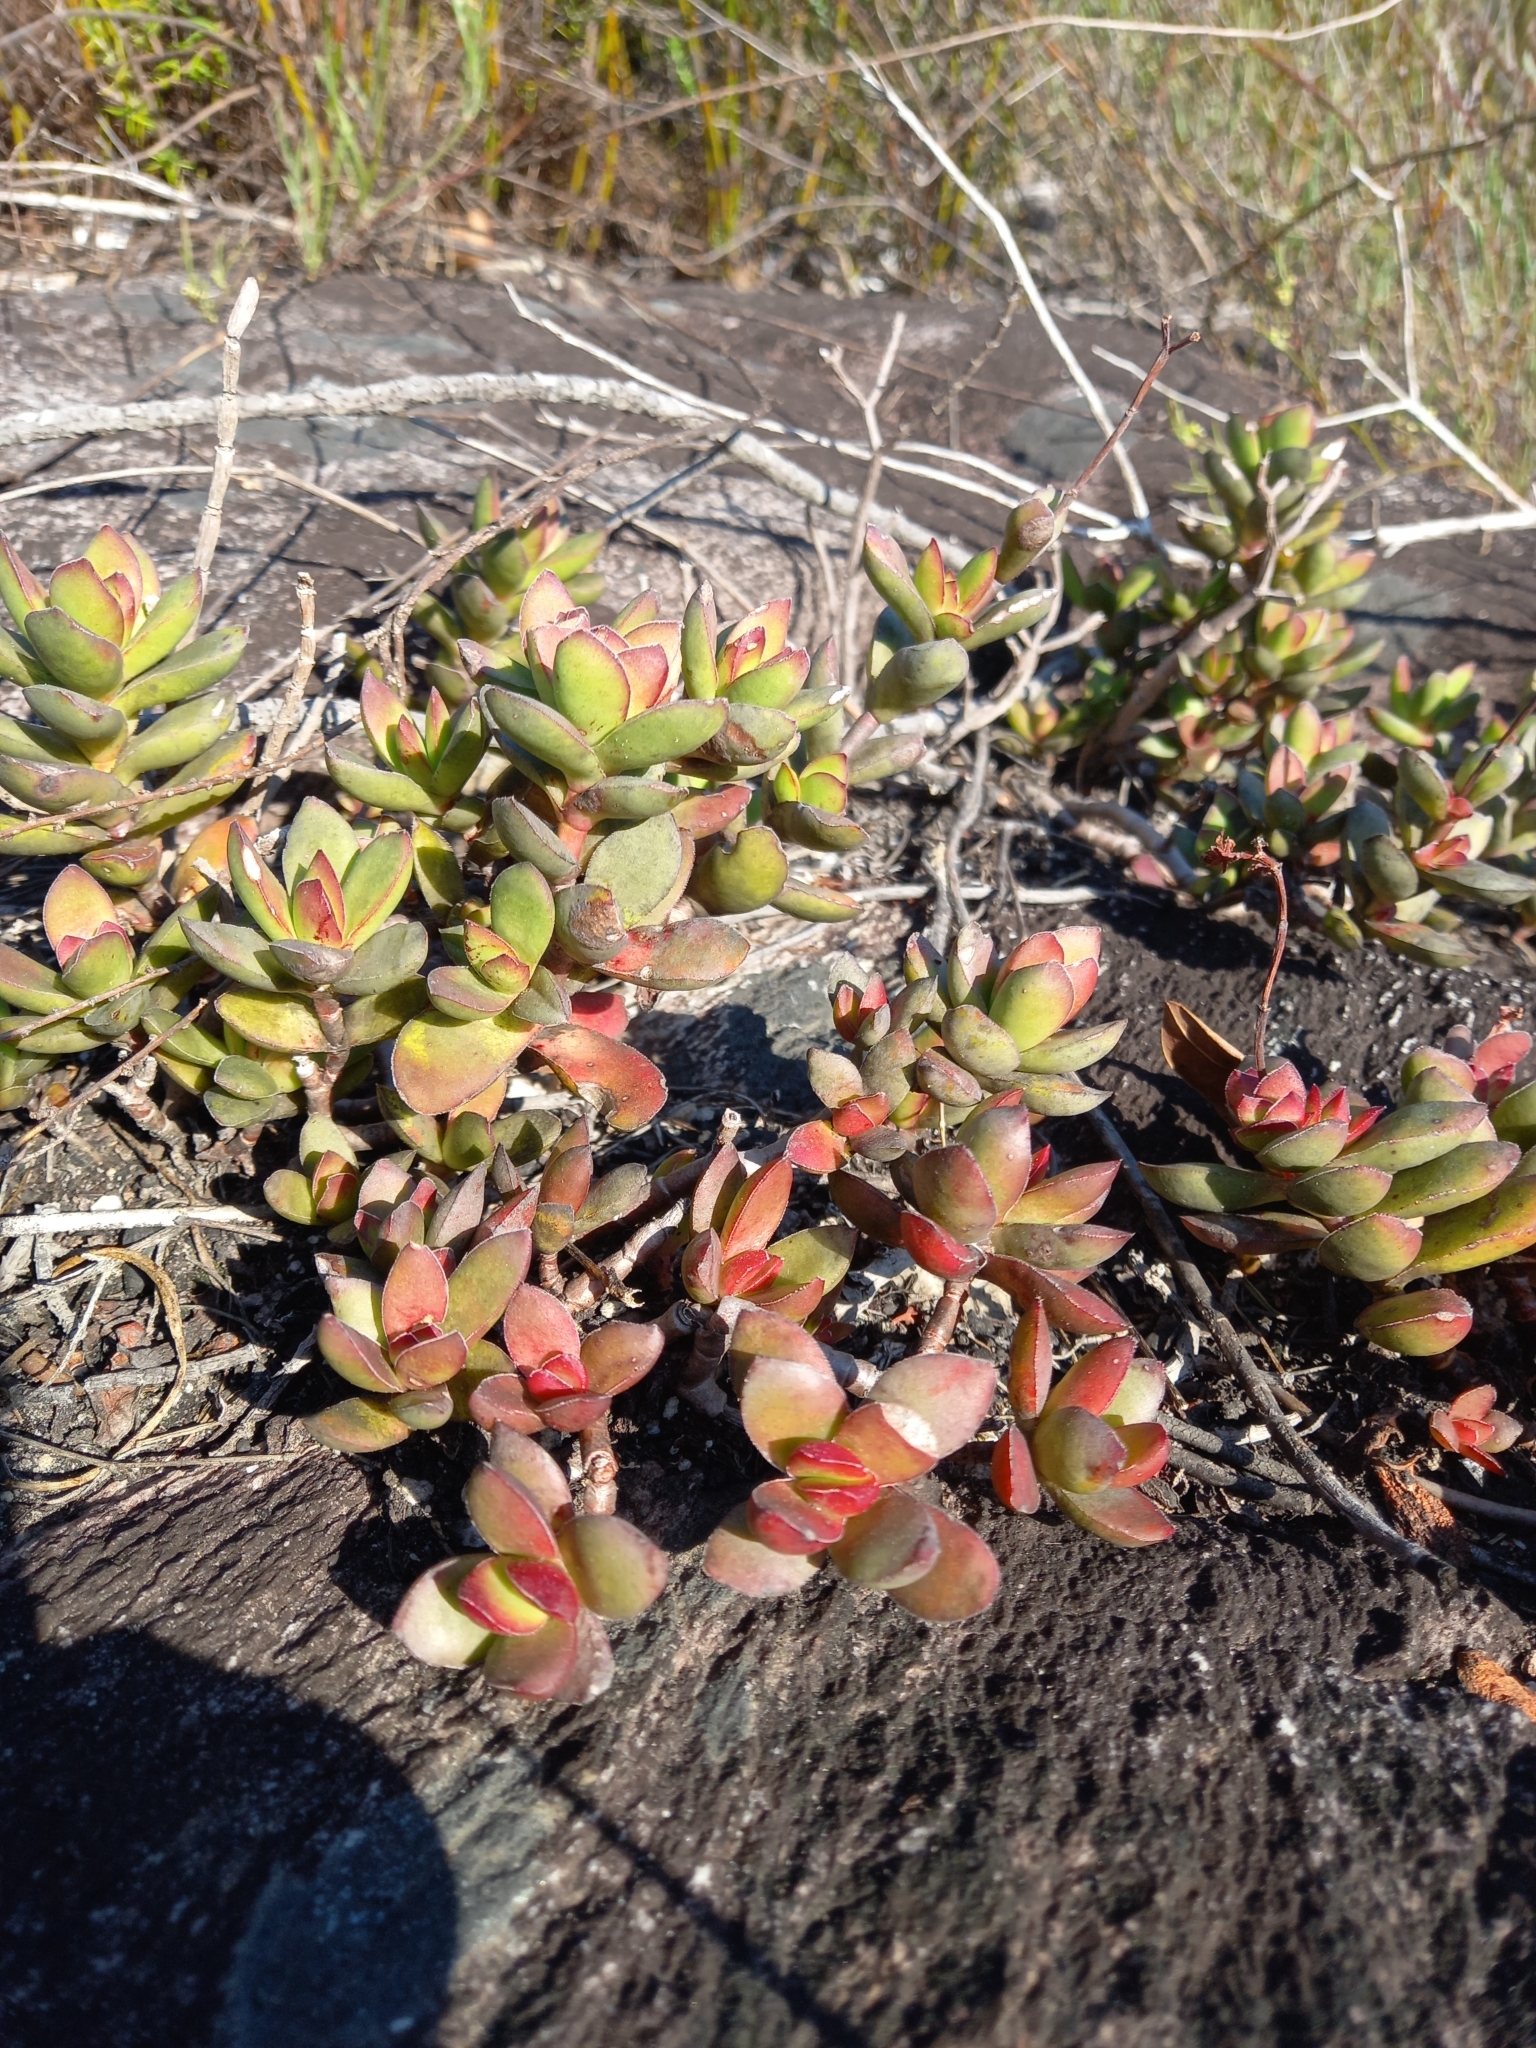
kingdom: Plantae
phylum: Tracheophyta
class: Magnoliopsida
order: Saxifragales
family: Crassulaceae
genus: Crassula
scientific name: Crassula rubricaulis
